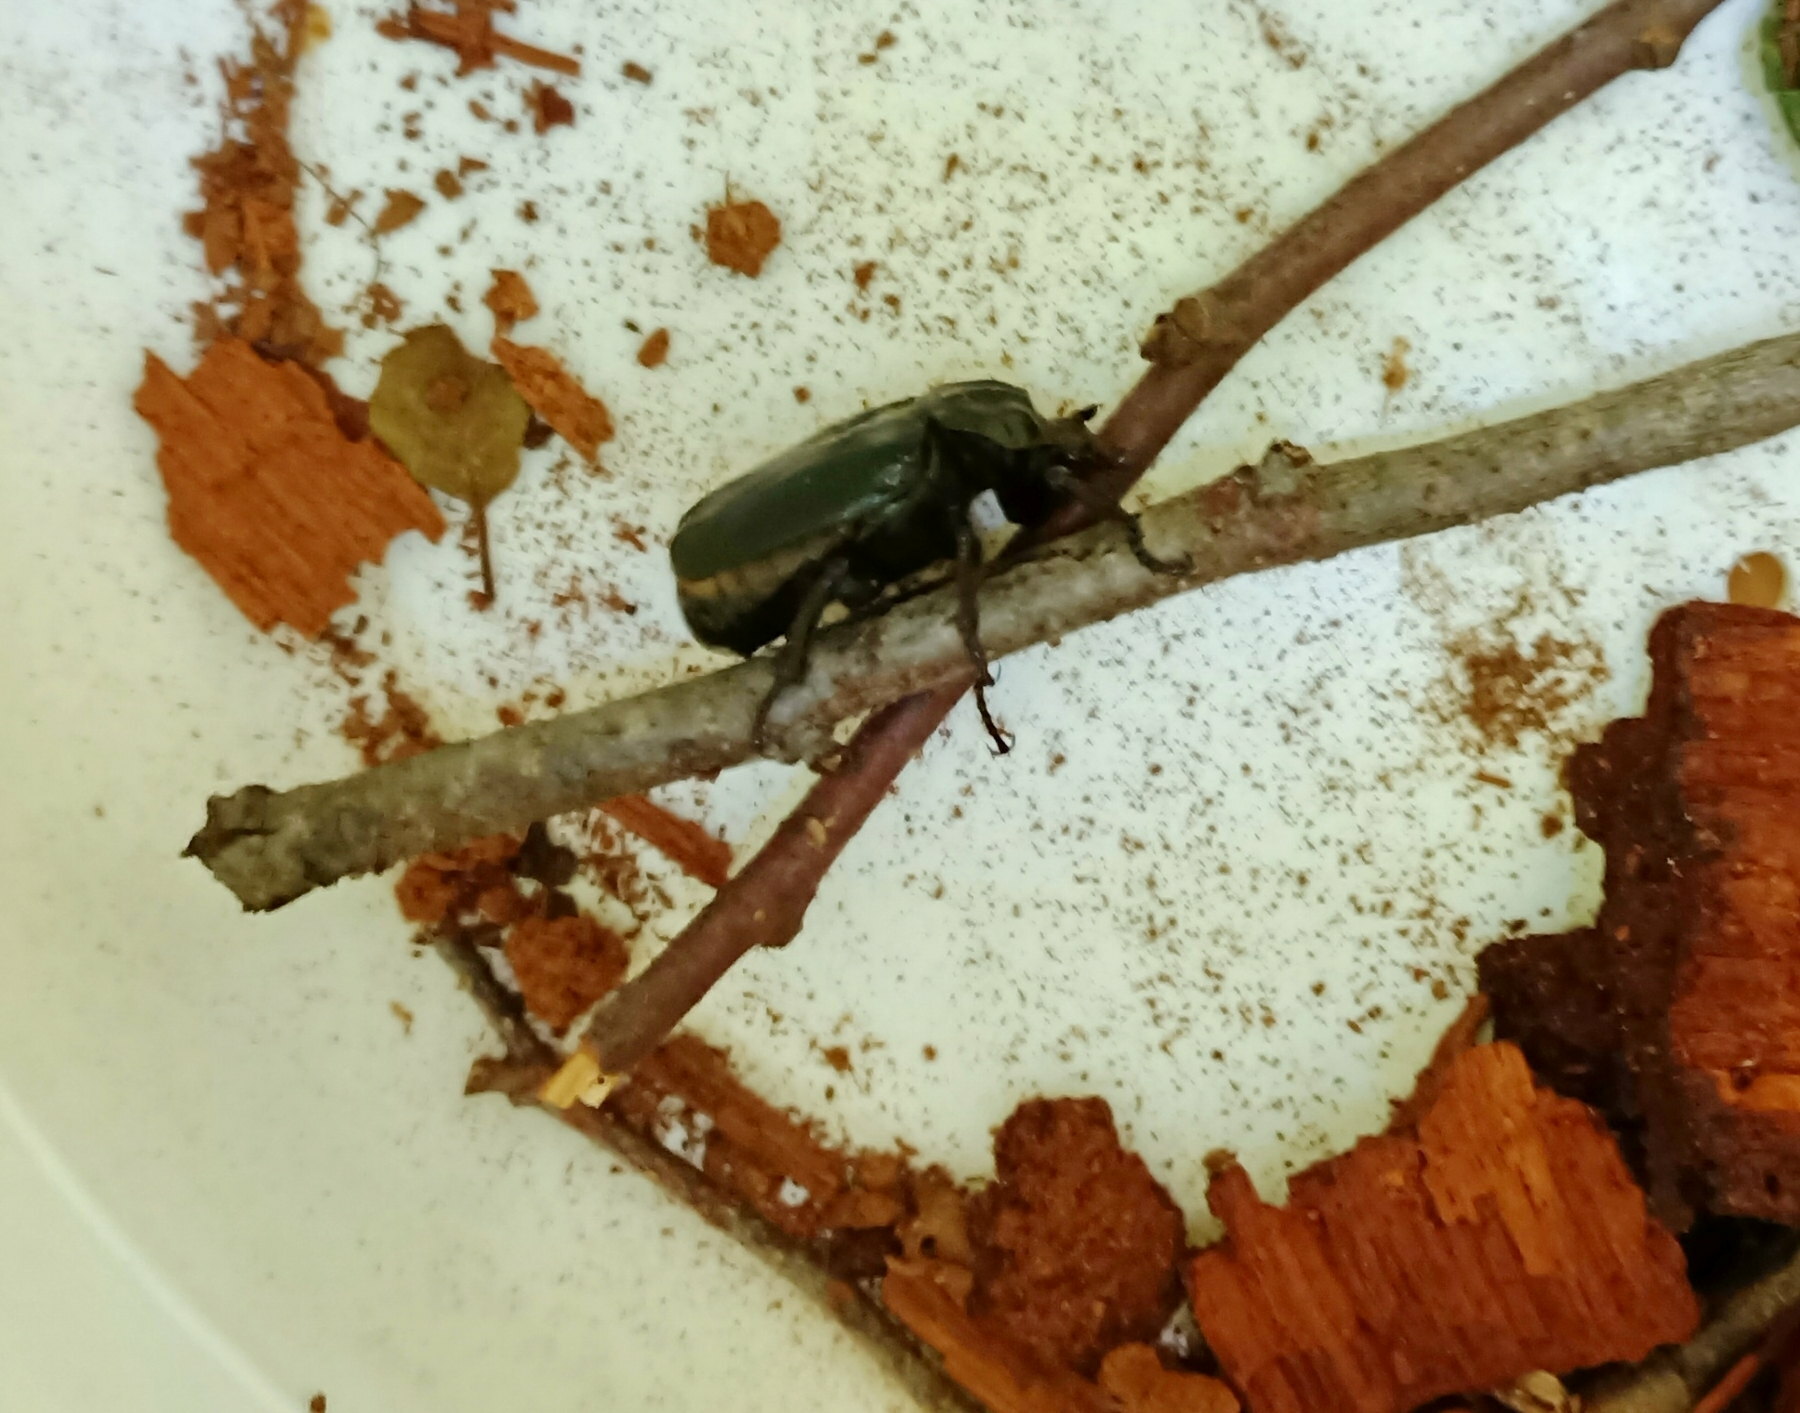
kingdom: Animalia
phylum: Arthropoda
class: Insecta
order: Coleoptera
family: Scarabaeidae
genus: Osmoderma
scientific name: Osmoderma barnabita
